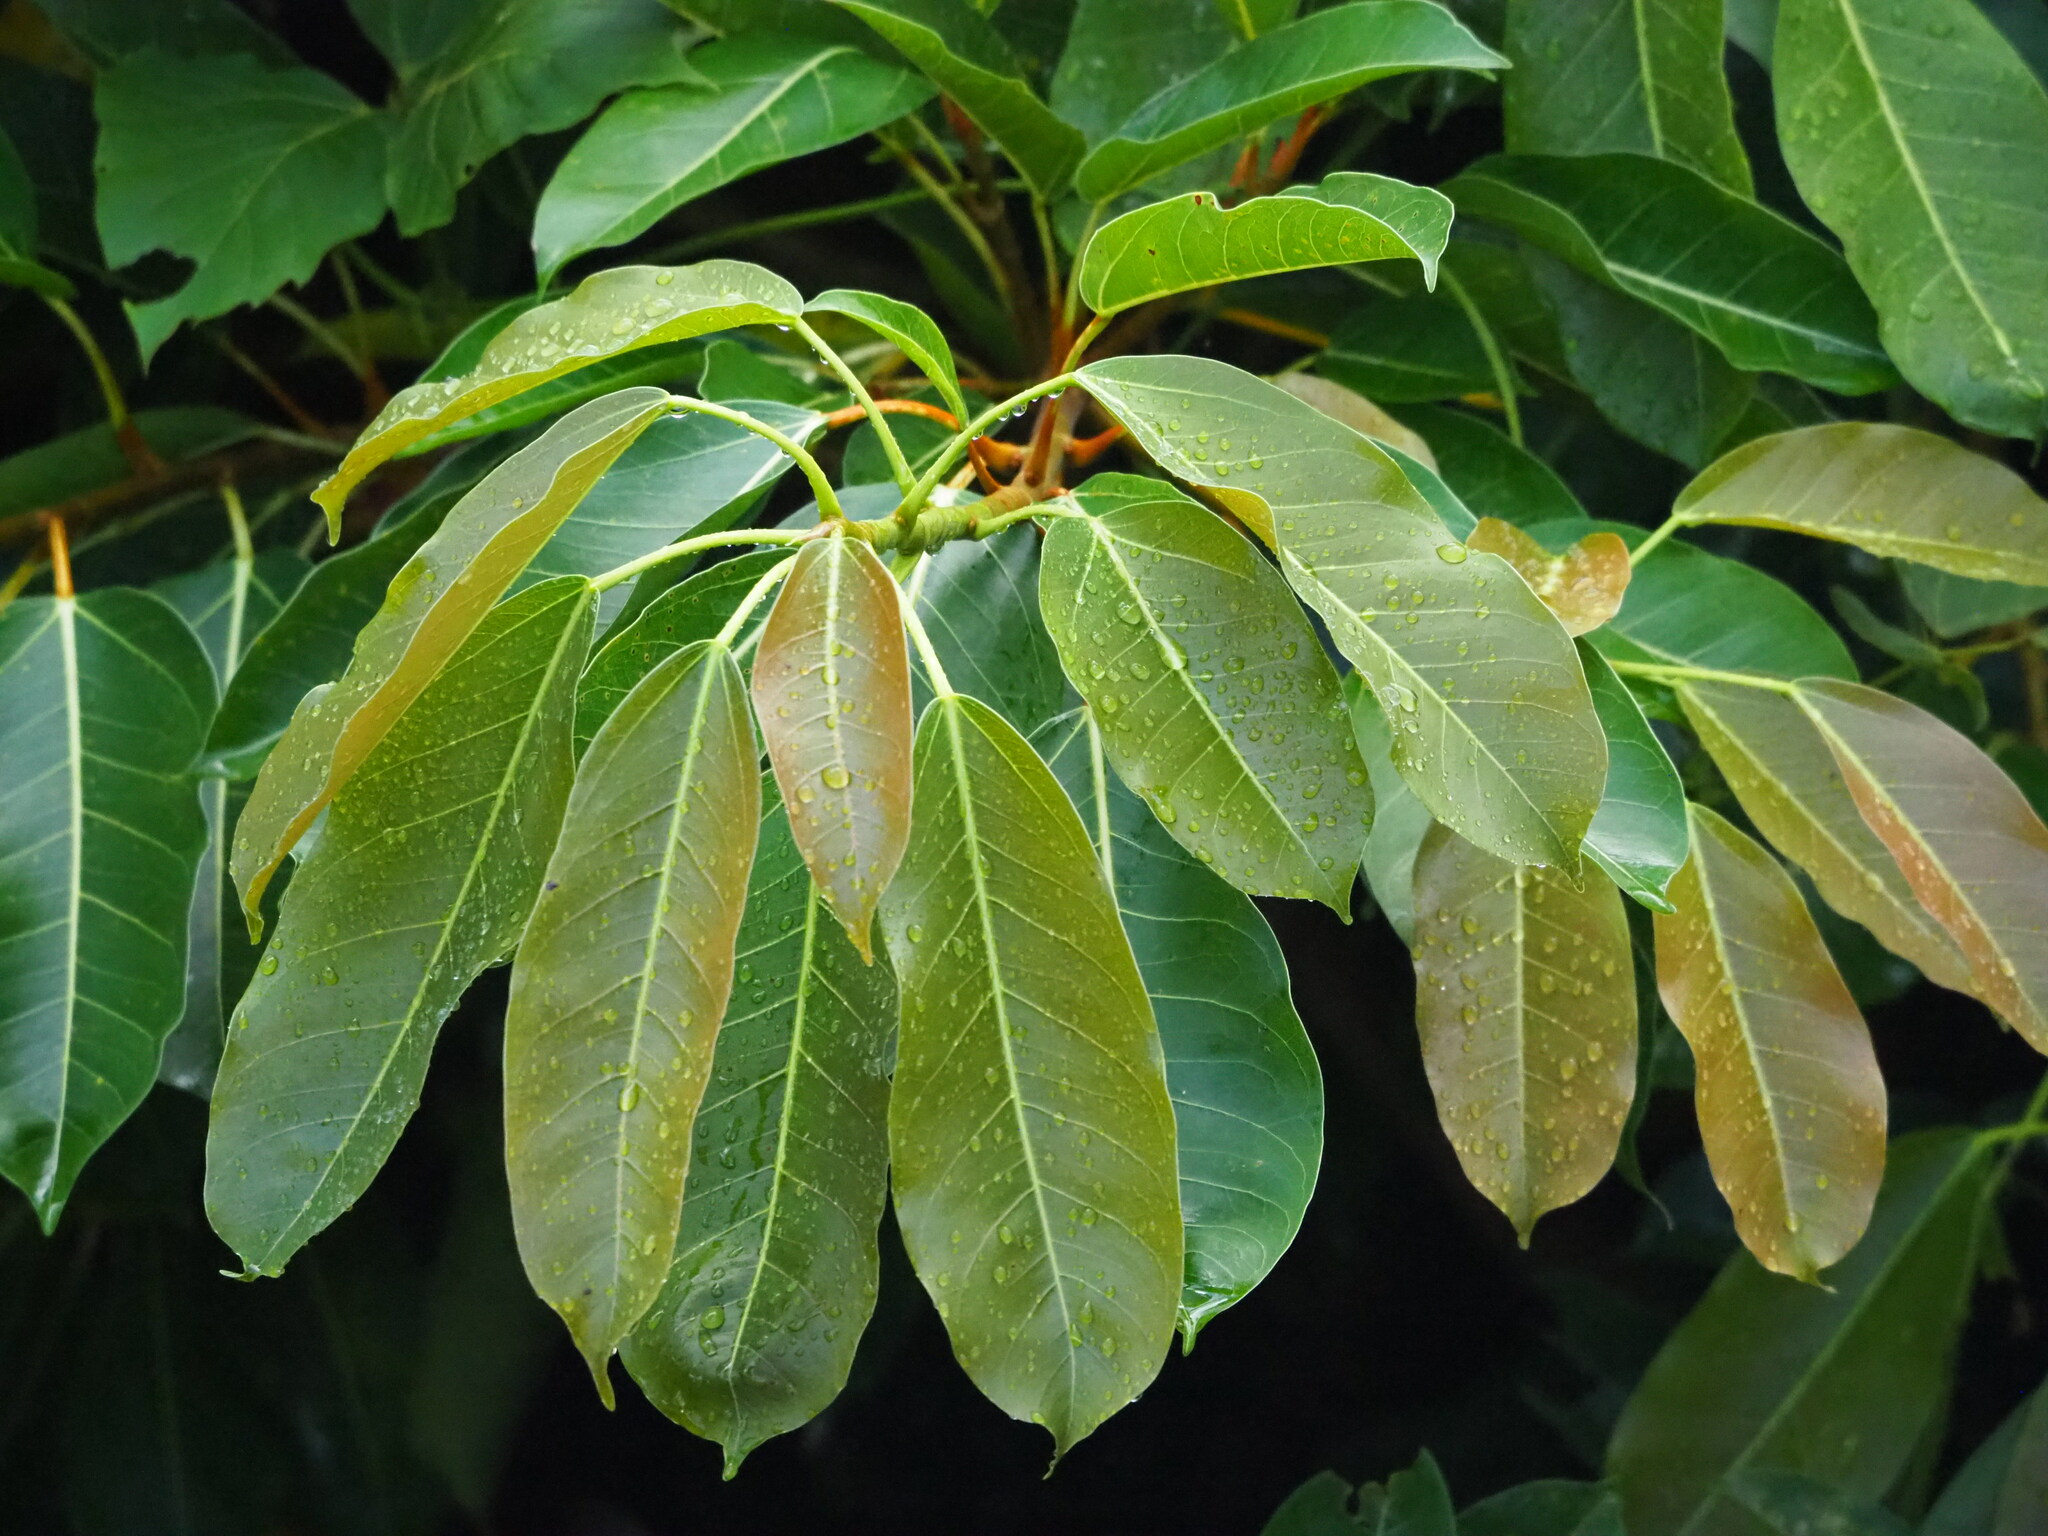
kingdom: Plantae
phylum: Tracheophyta
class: Magnoliopsida
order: Rosales
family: Moraceae
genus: Ficus
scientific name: Ficus caulocarpa
